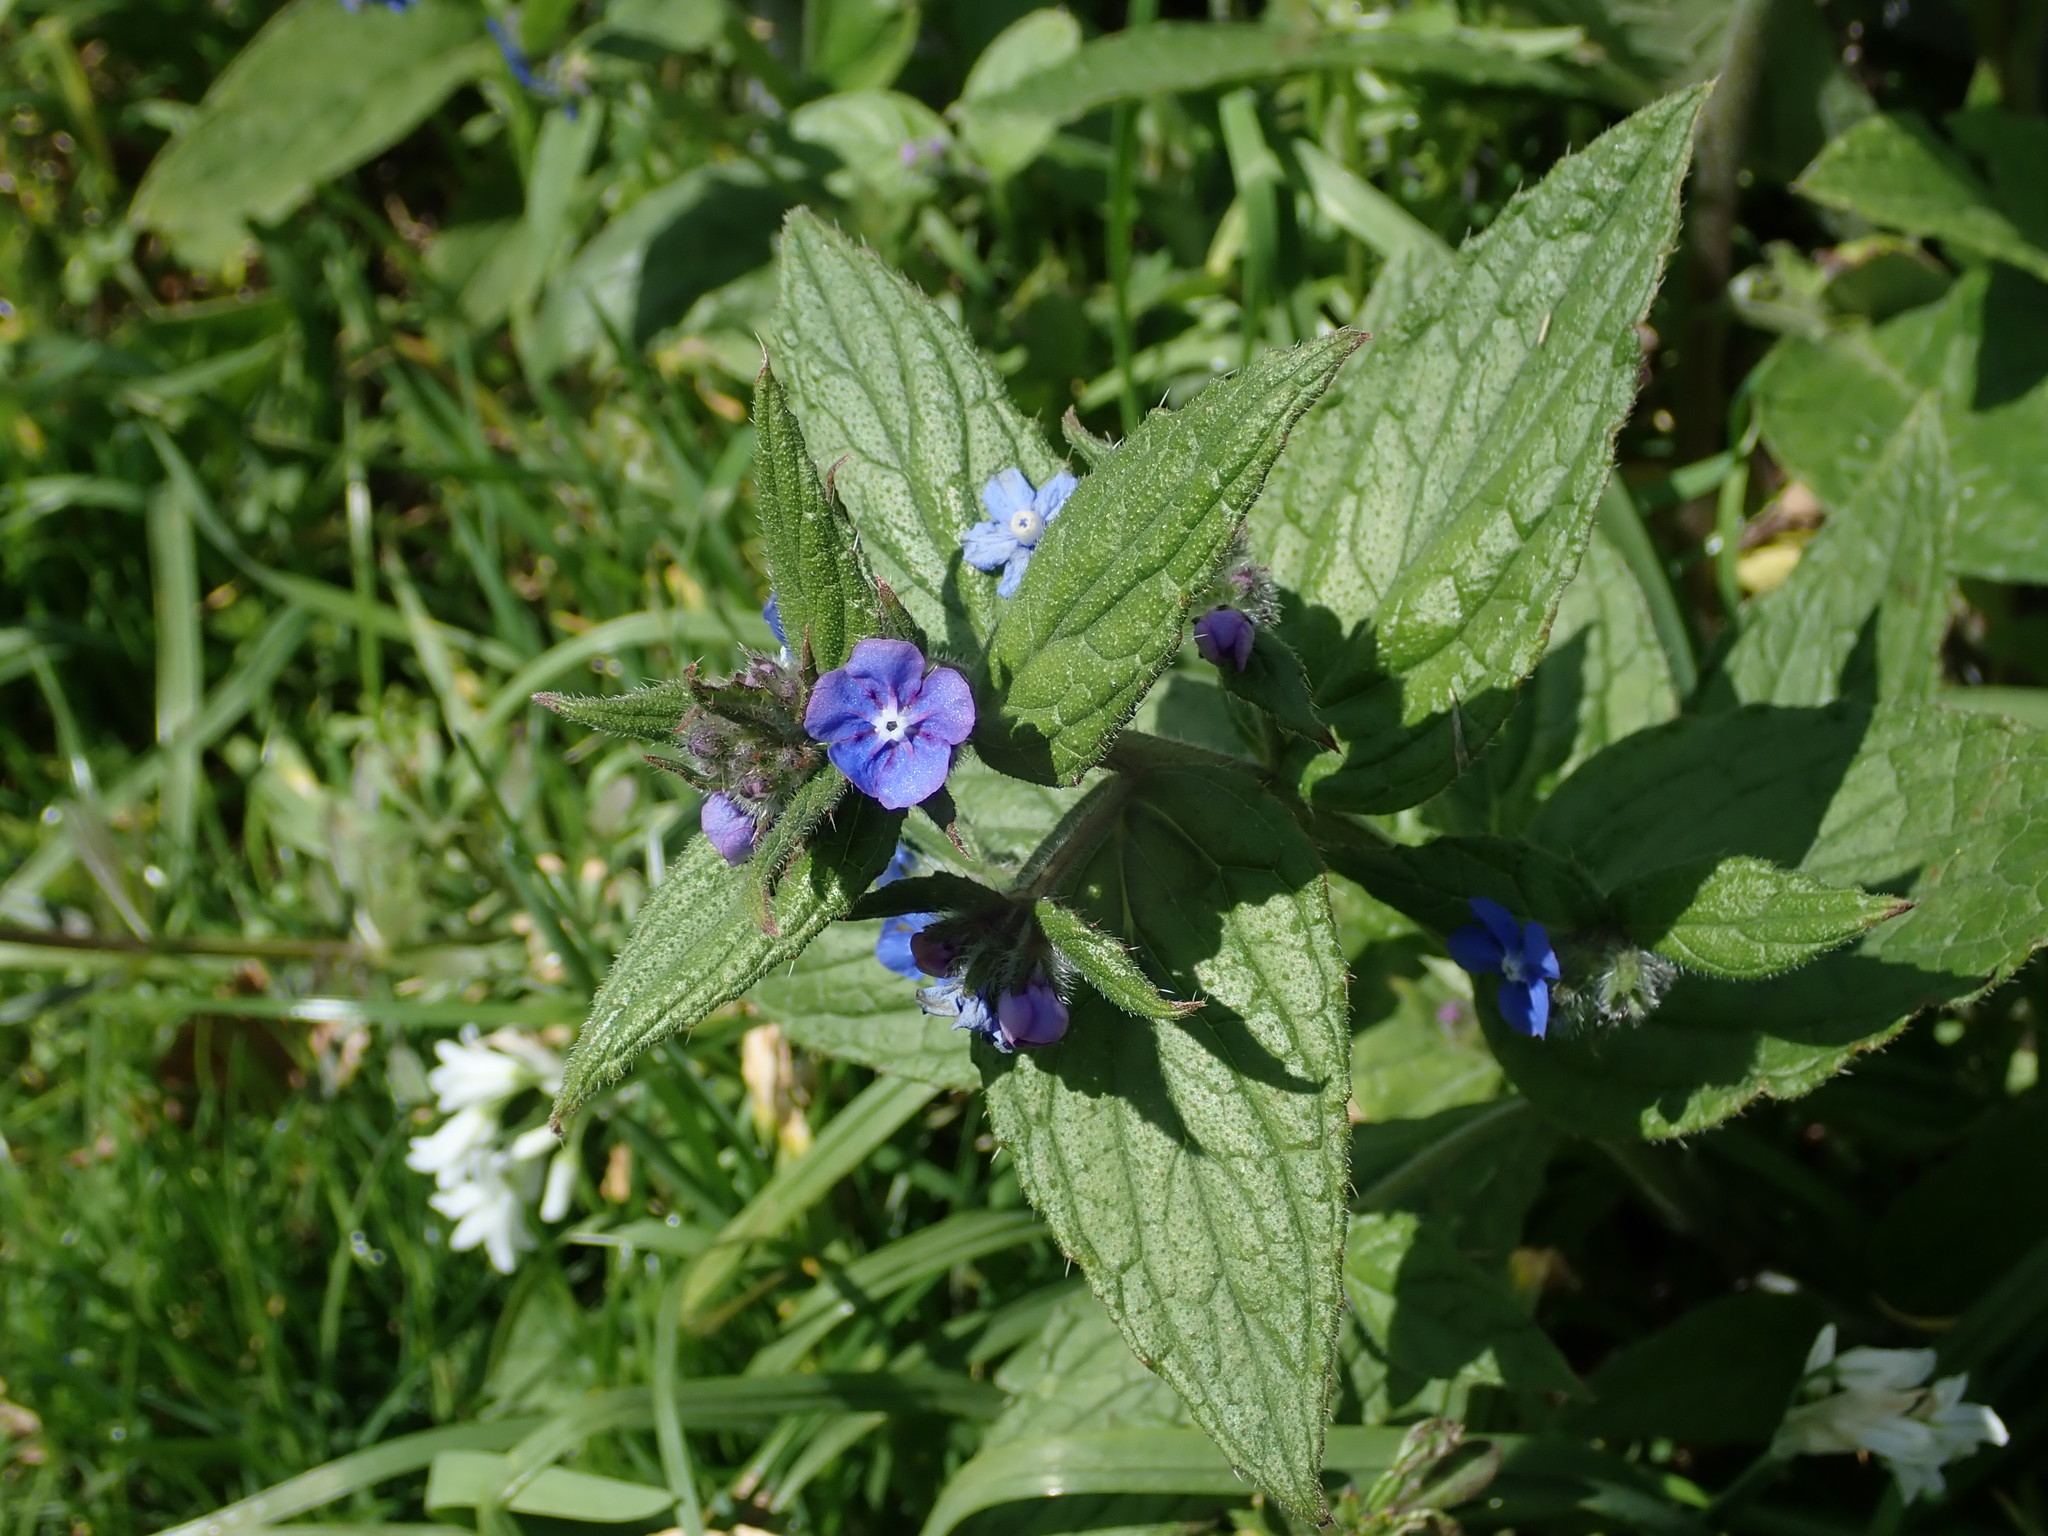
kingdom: Plantae
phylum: Tracheophyta
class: Magnoliopsida
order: Boraginales
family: Boraginaceae
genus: Pentaglottis
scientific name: Pentaglottis sempervirens
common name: Green alkanet
